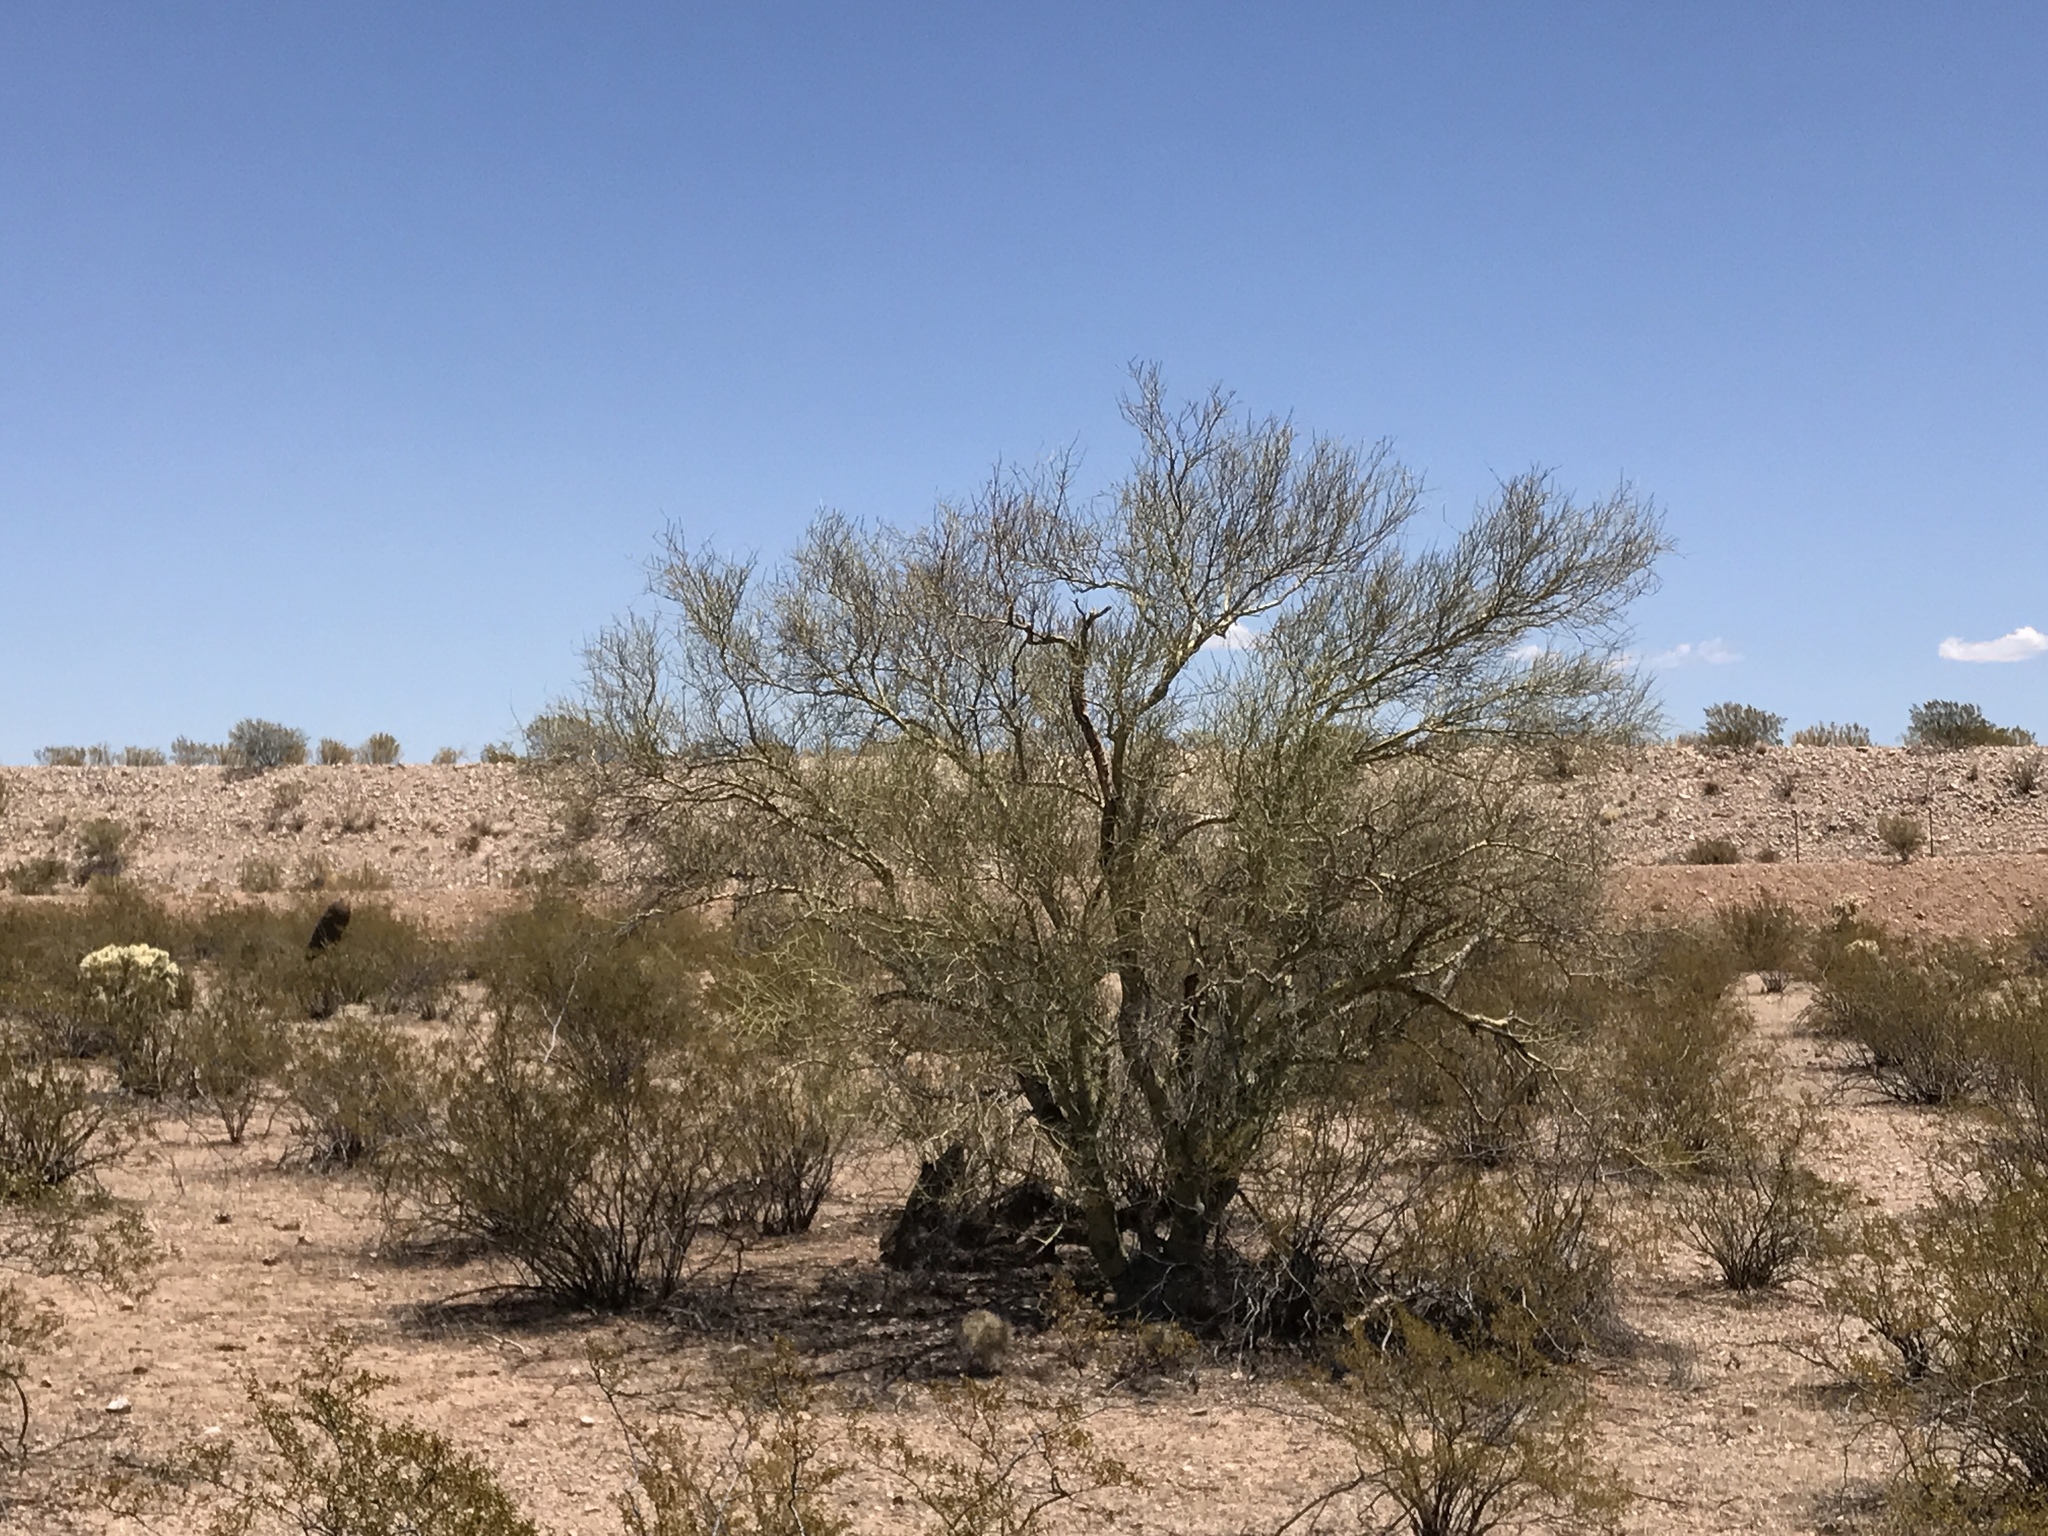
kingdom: Plantae
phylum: Tracheophyta
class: Magnoliopsida
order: Fabales
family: Fabaceae
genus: Parkinsonia
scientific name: Parkinsonia microphylla
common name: Yellow paloverde
